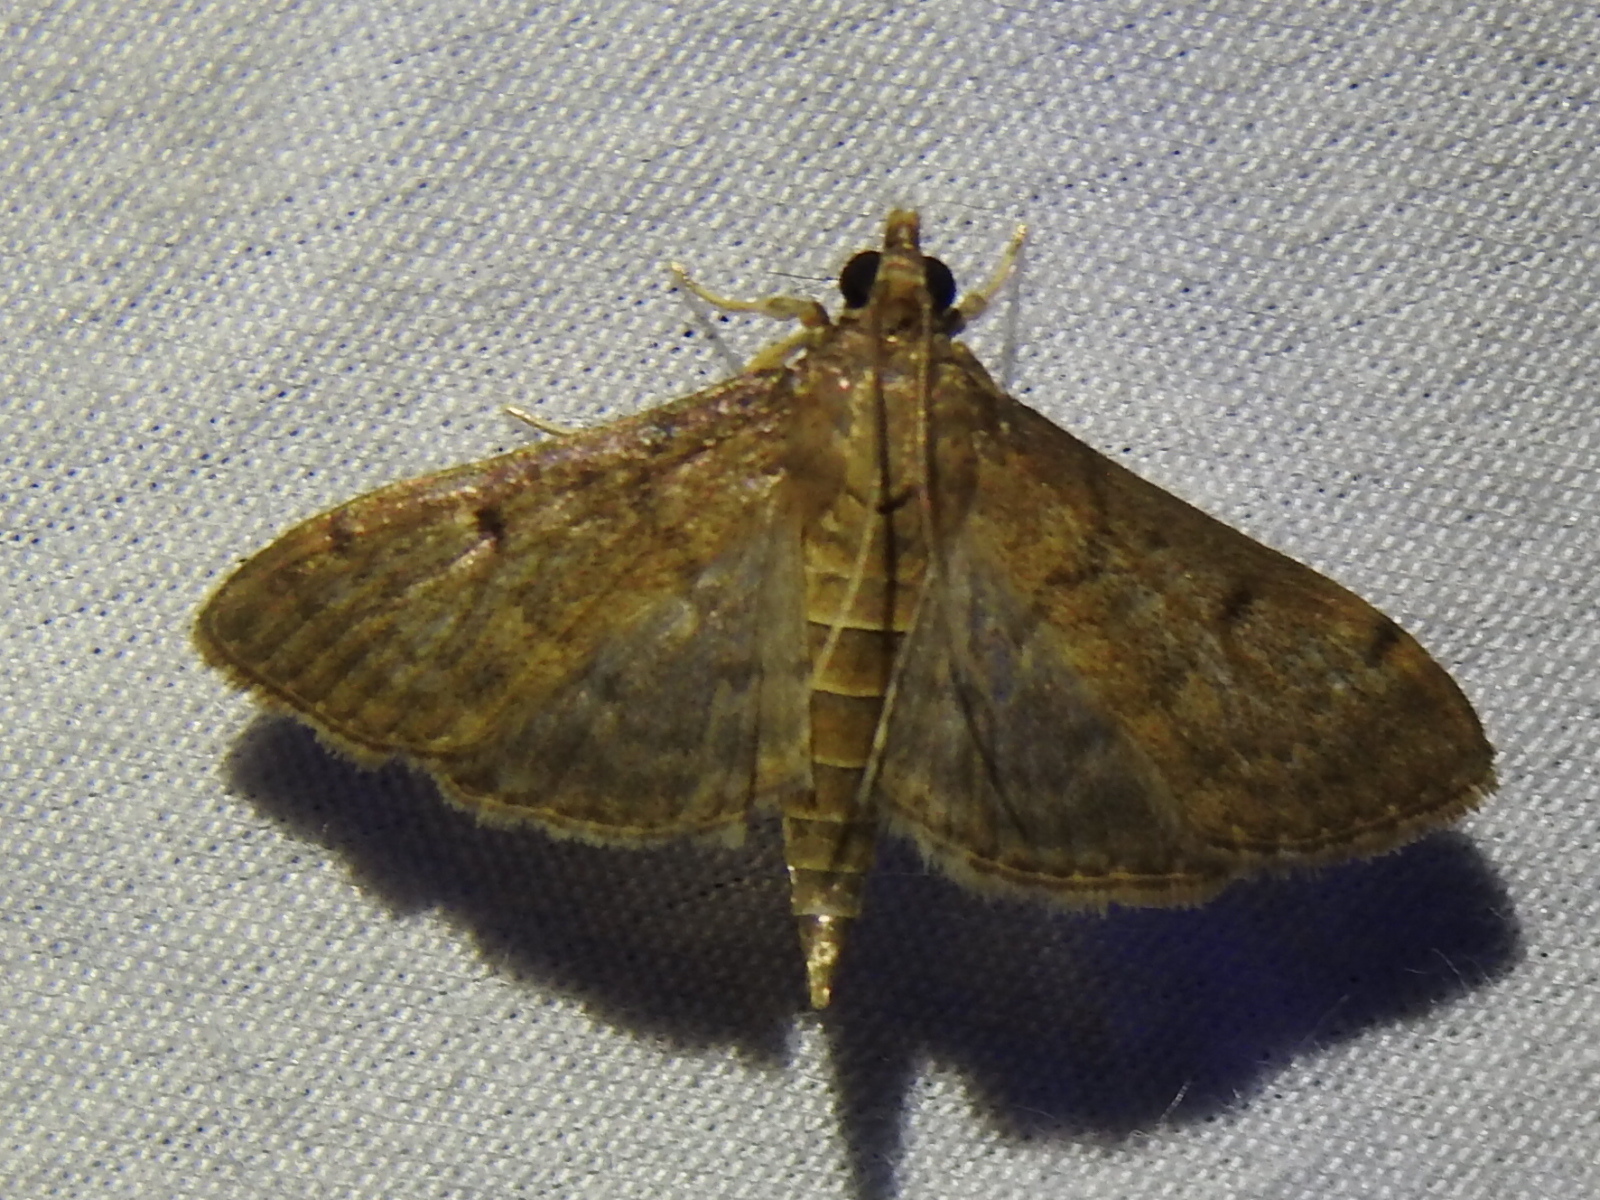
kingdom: Animalia
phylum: Arthropoda
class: Insecta
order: Lepidoptera
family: Crambidae
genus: Herpetogramma
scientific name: Herpetogramma phaeopteralis
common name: Dusky herpetogramma moth
